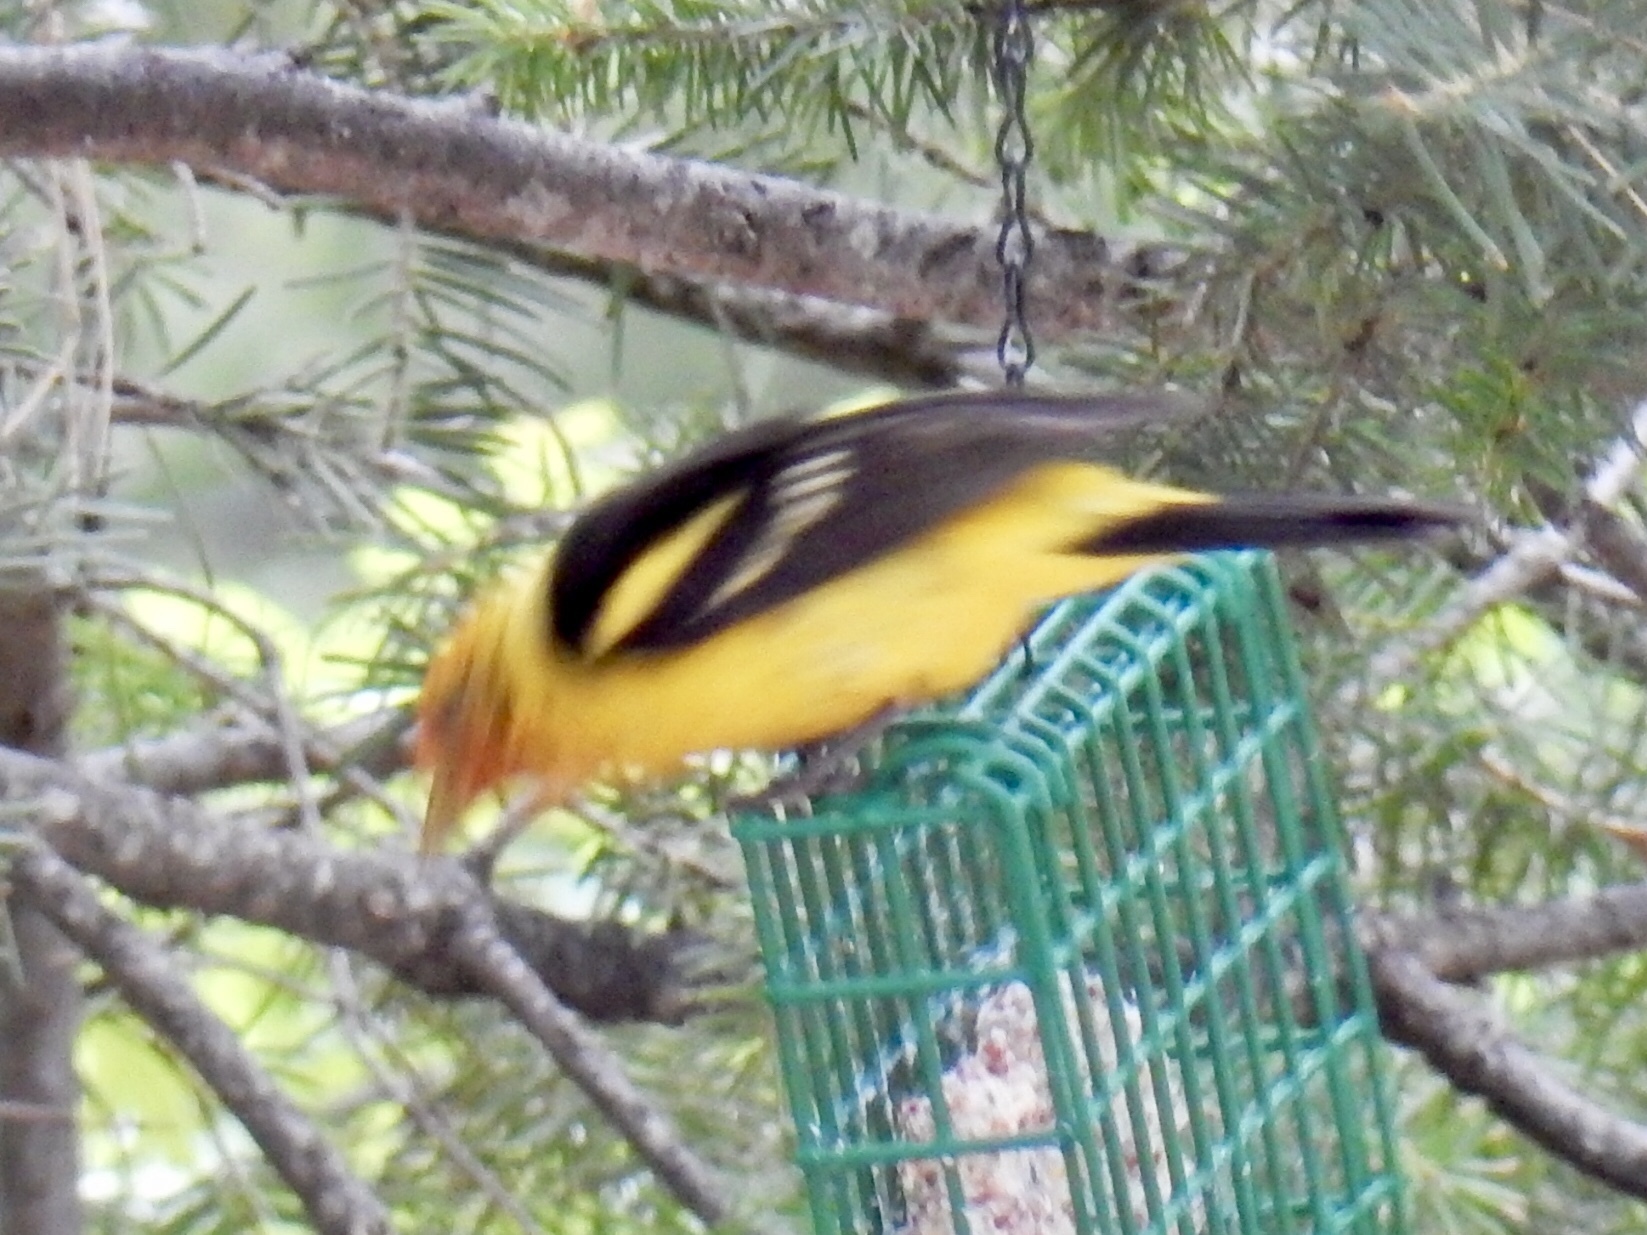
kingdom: Animalia
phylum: Chordata
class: Aves
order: Passeriformes
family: Cardinalidae
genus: Piranga
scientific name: Piranga ludoviciana
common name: Western tanager
